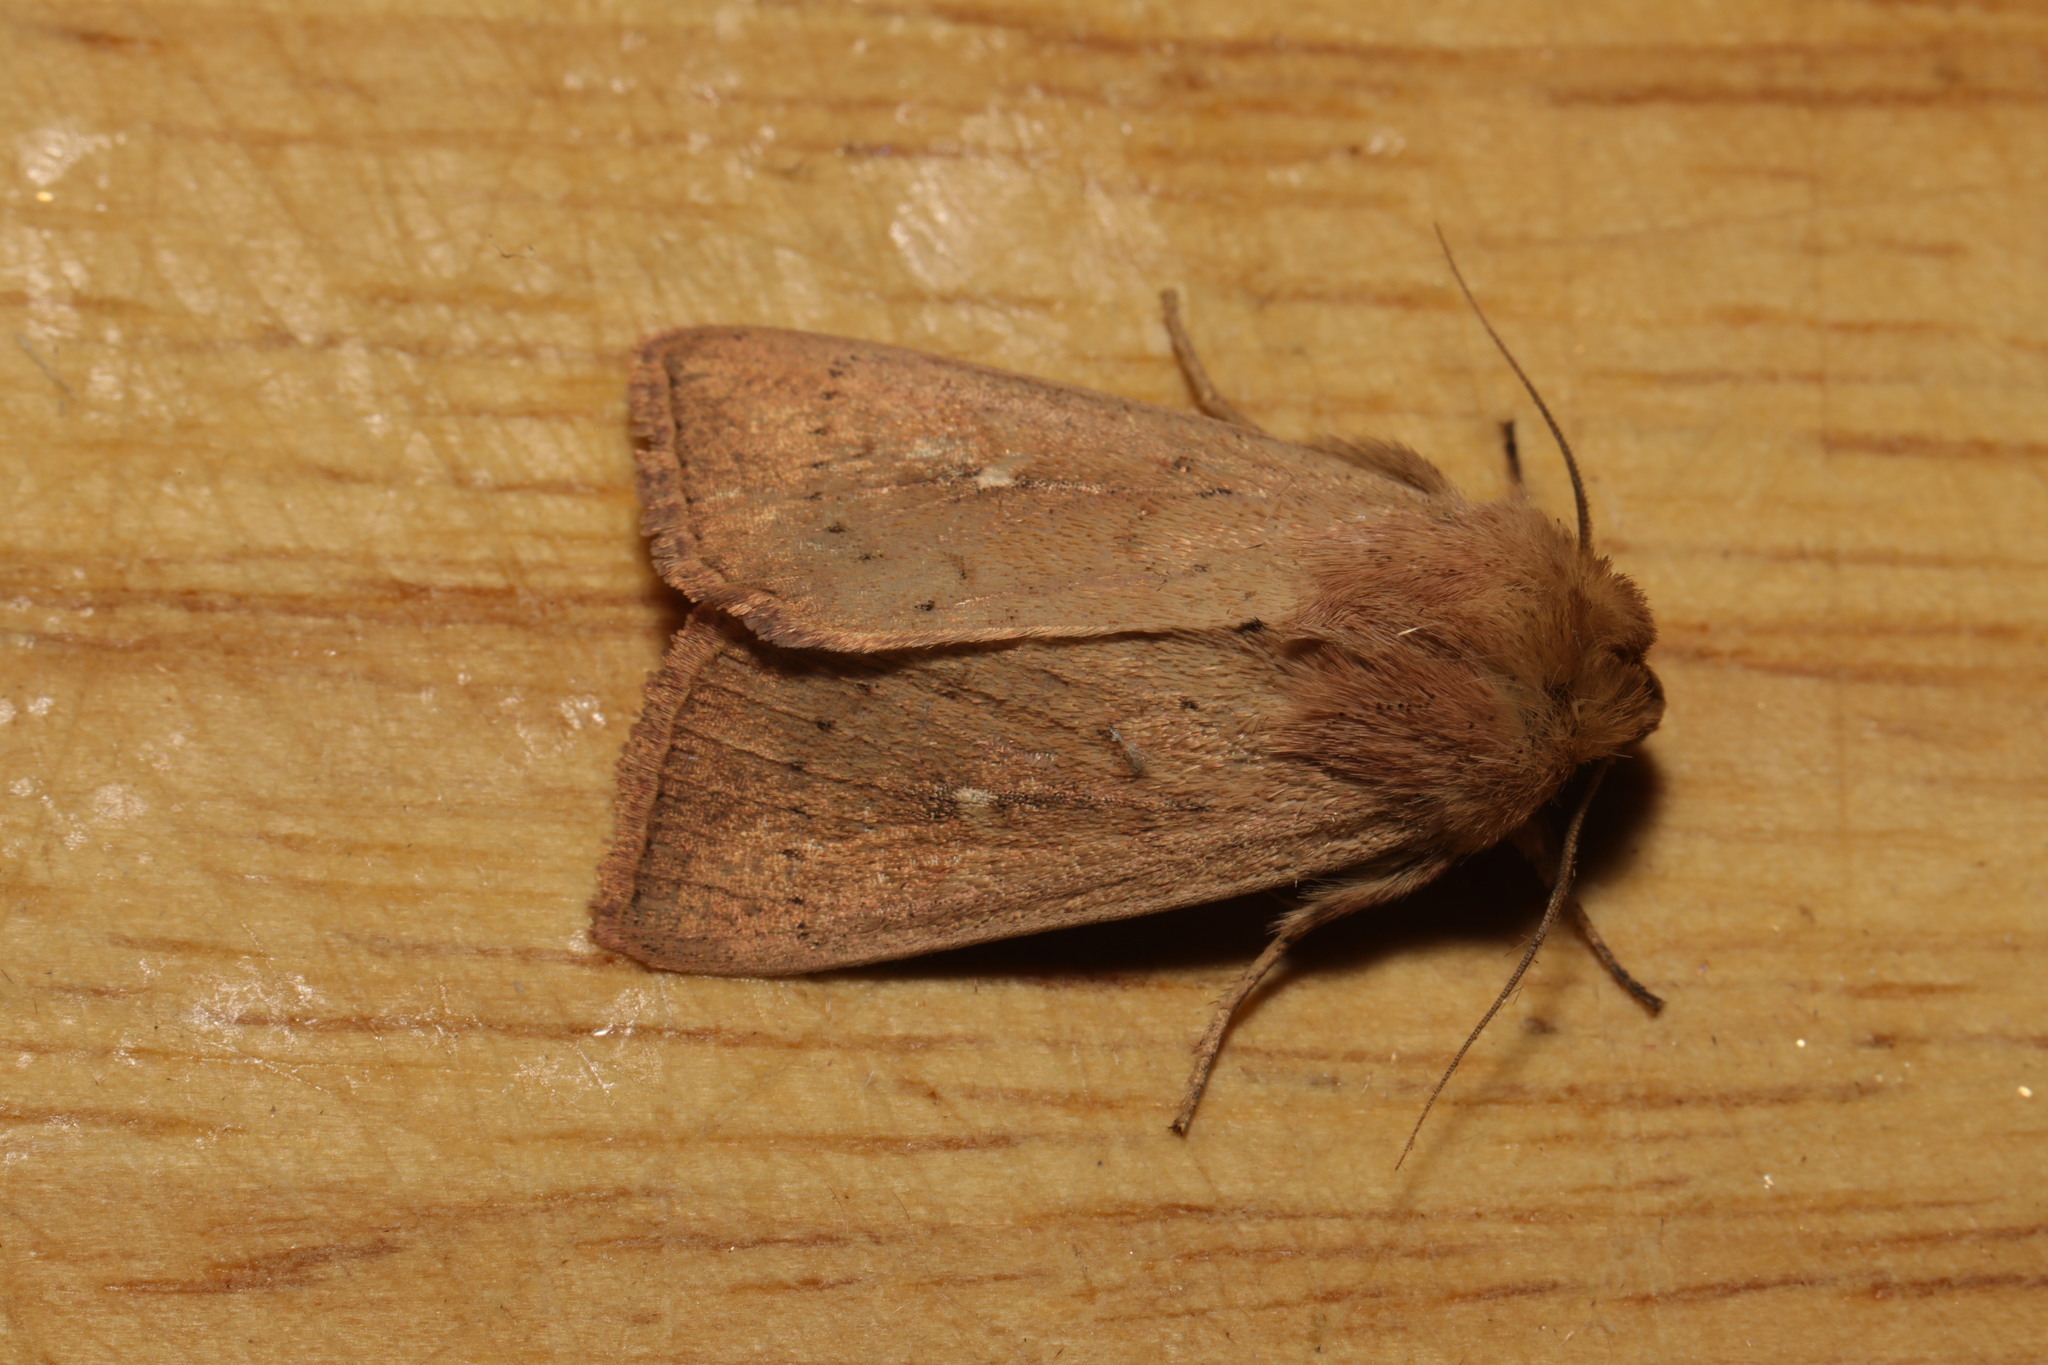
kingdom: Animalia
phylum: Arthropoda
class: Insecta
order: Lepidoptera
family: Noctuidae
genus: Mythimna
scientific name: Mythimna ferrago
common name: Clay
